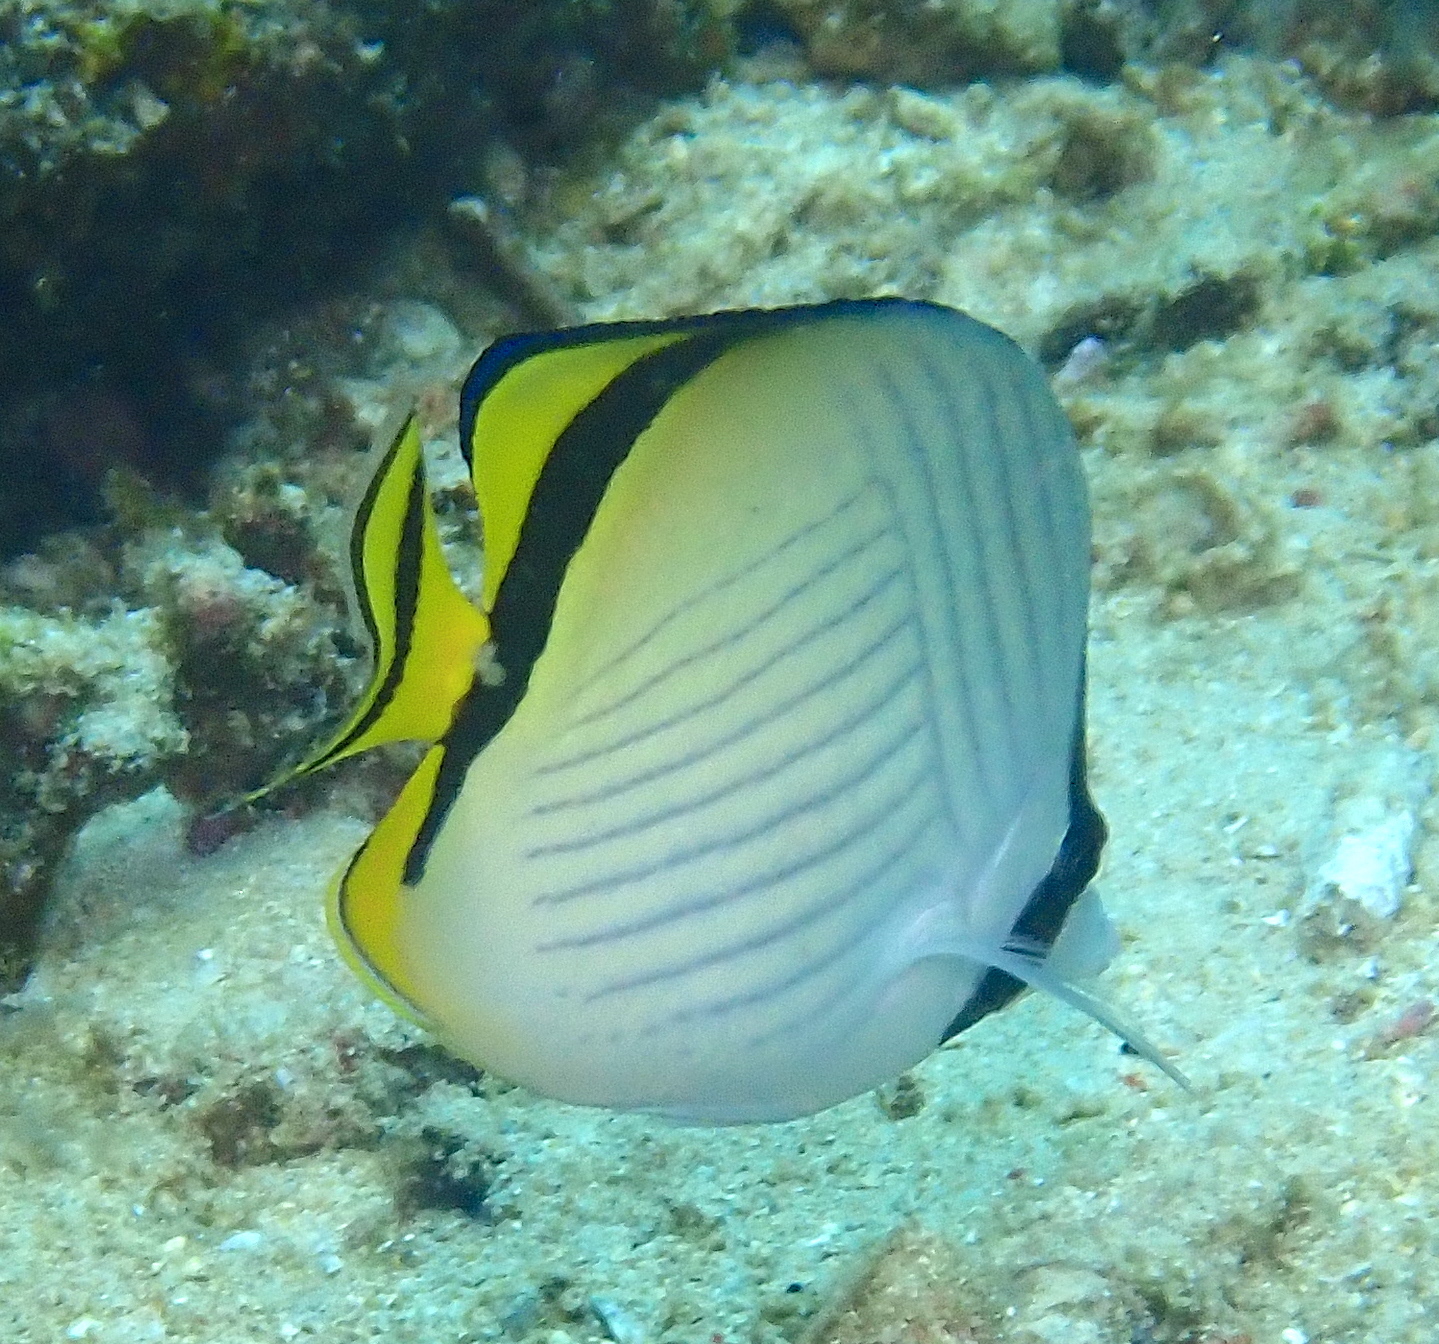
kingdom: Animalia
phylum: Chordata
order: Perciformes
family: Chaetodontidae
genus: Chaetodon
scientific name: Chaetodon vagabundus
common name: Vagabond butterflyfish
